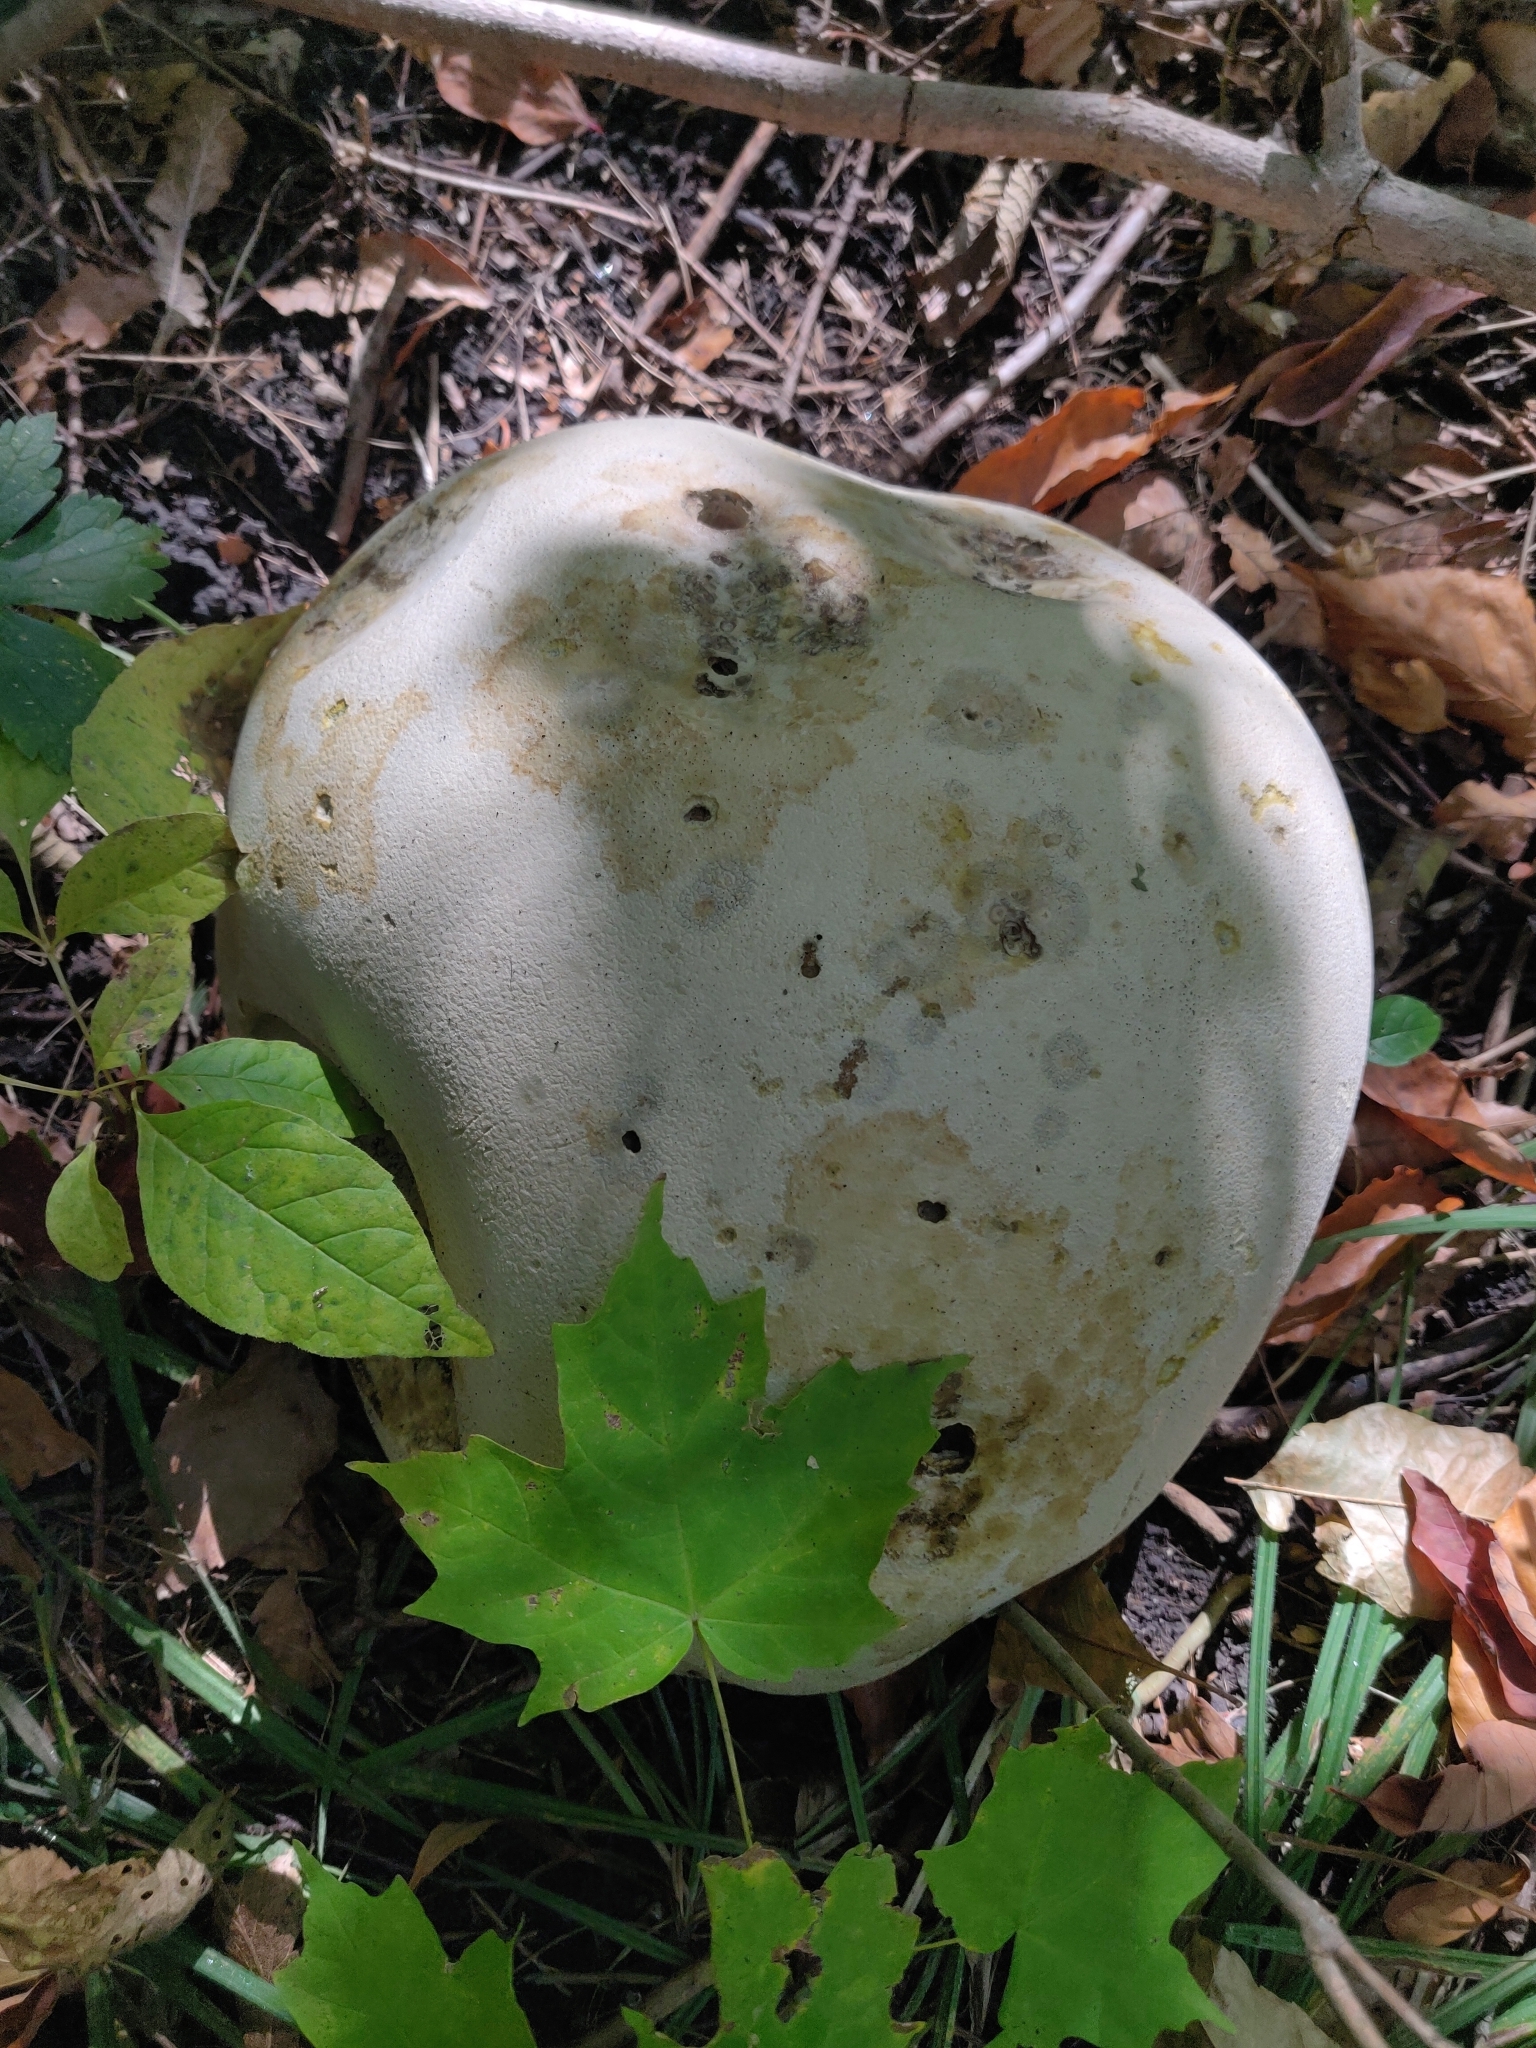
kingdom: Fungi
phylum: Basidiomycota
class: Agaricomycetes
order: Agaricales
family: Lycoperdaceae
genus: Calvatia
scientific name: Calvatia gigantea
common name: Giant puffball
